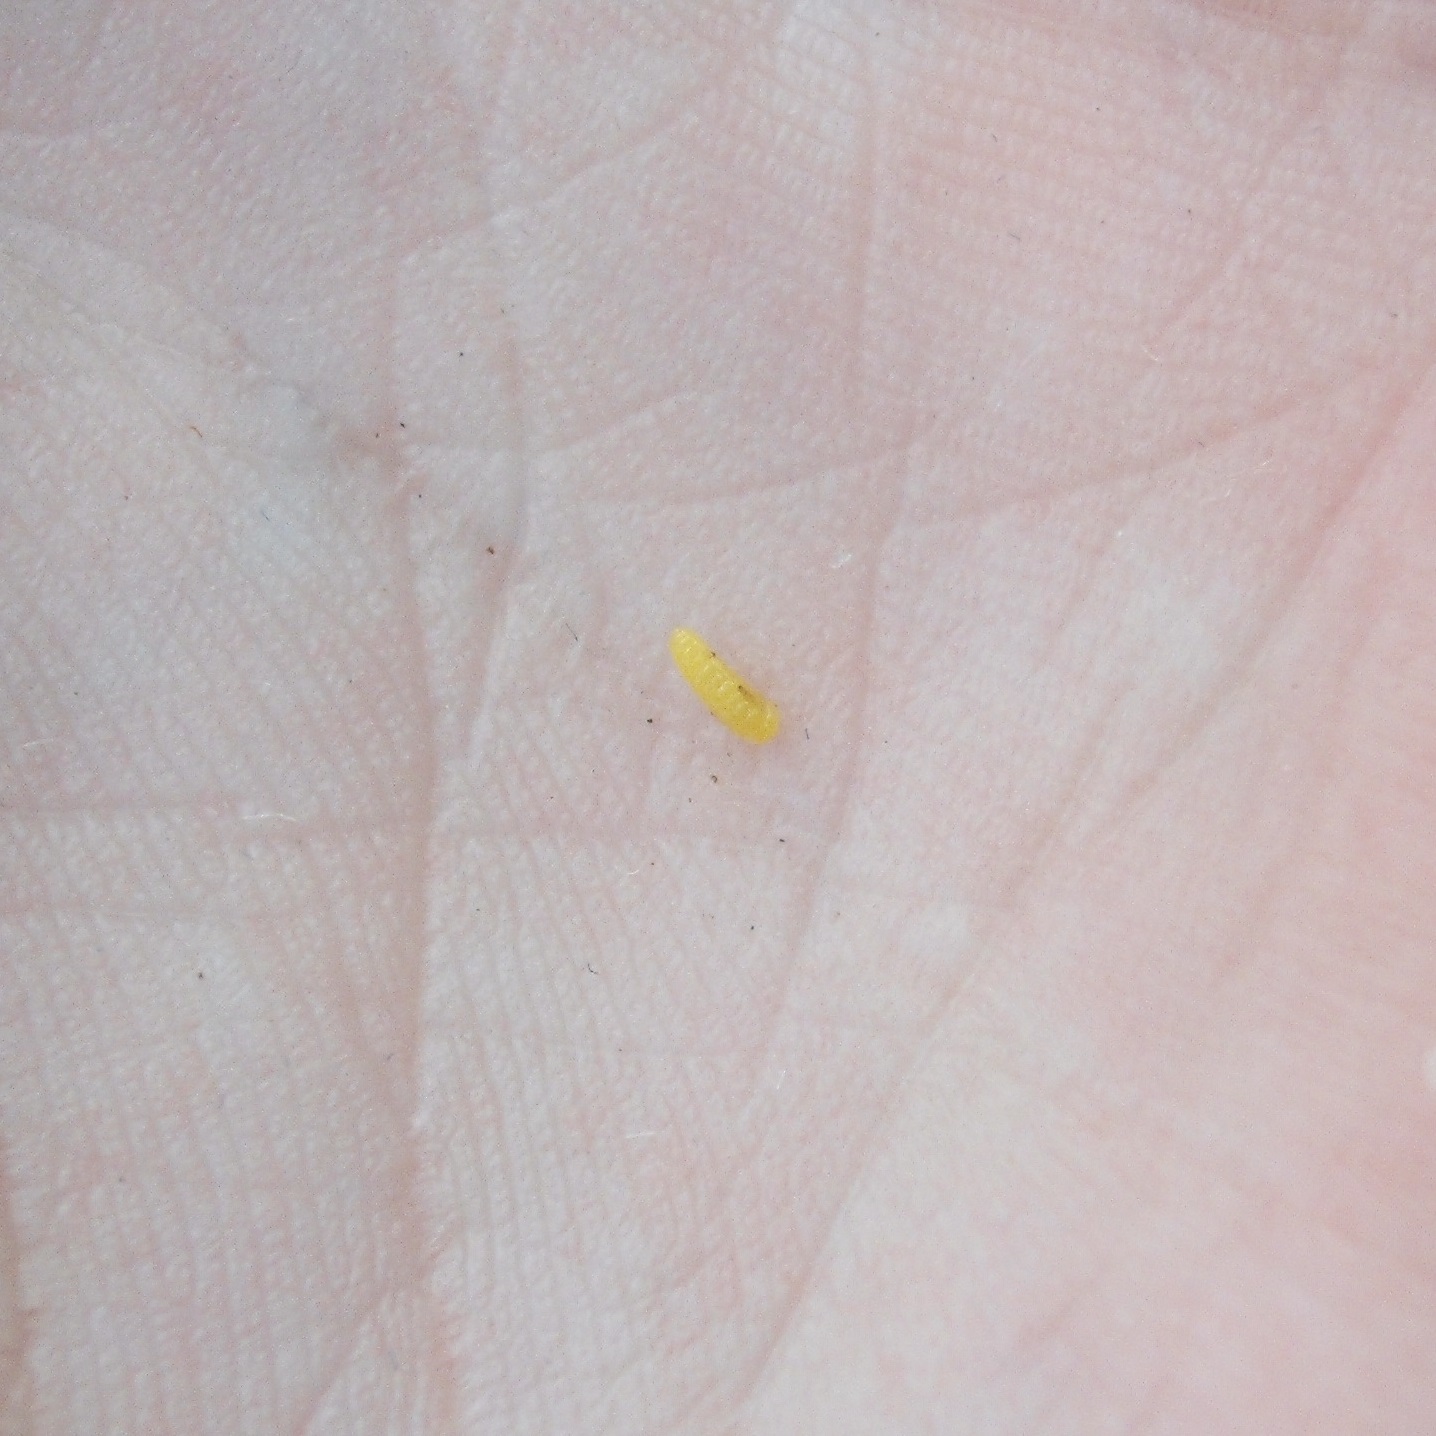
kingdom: Animalia
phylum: Arthropoda
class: Insecta
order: Hymenoptera
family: Cynipidae
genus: Phanacis
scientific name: Phanacis hypochoeridis
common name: Gall wasp
